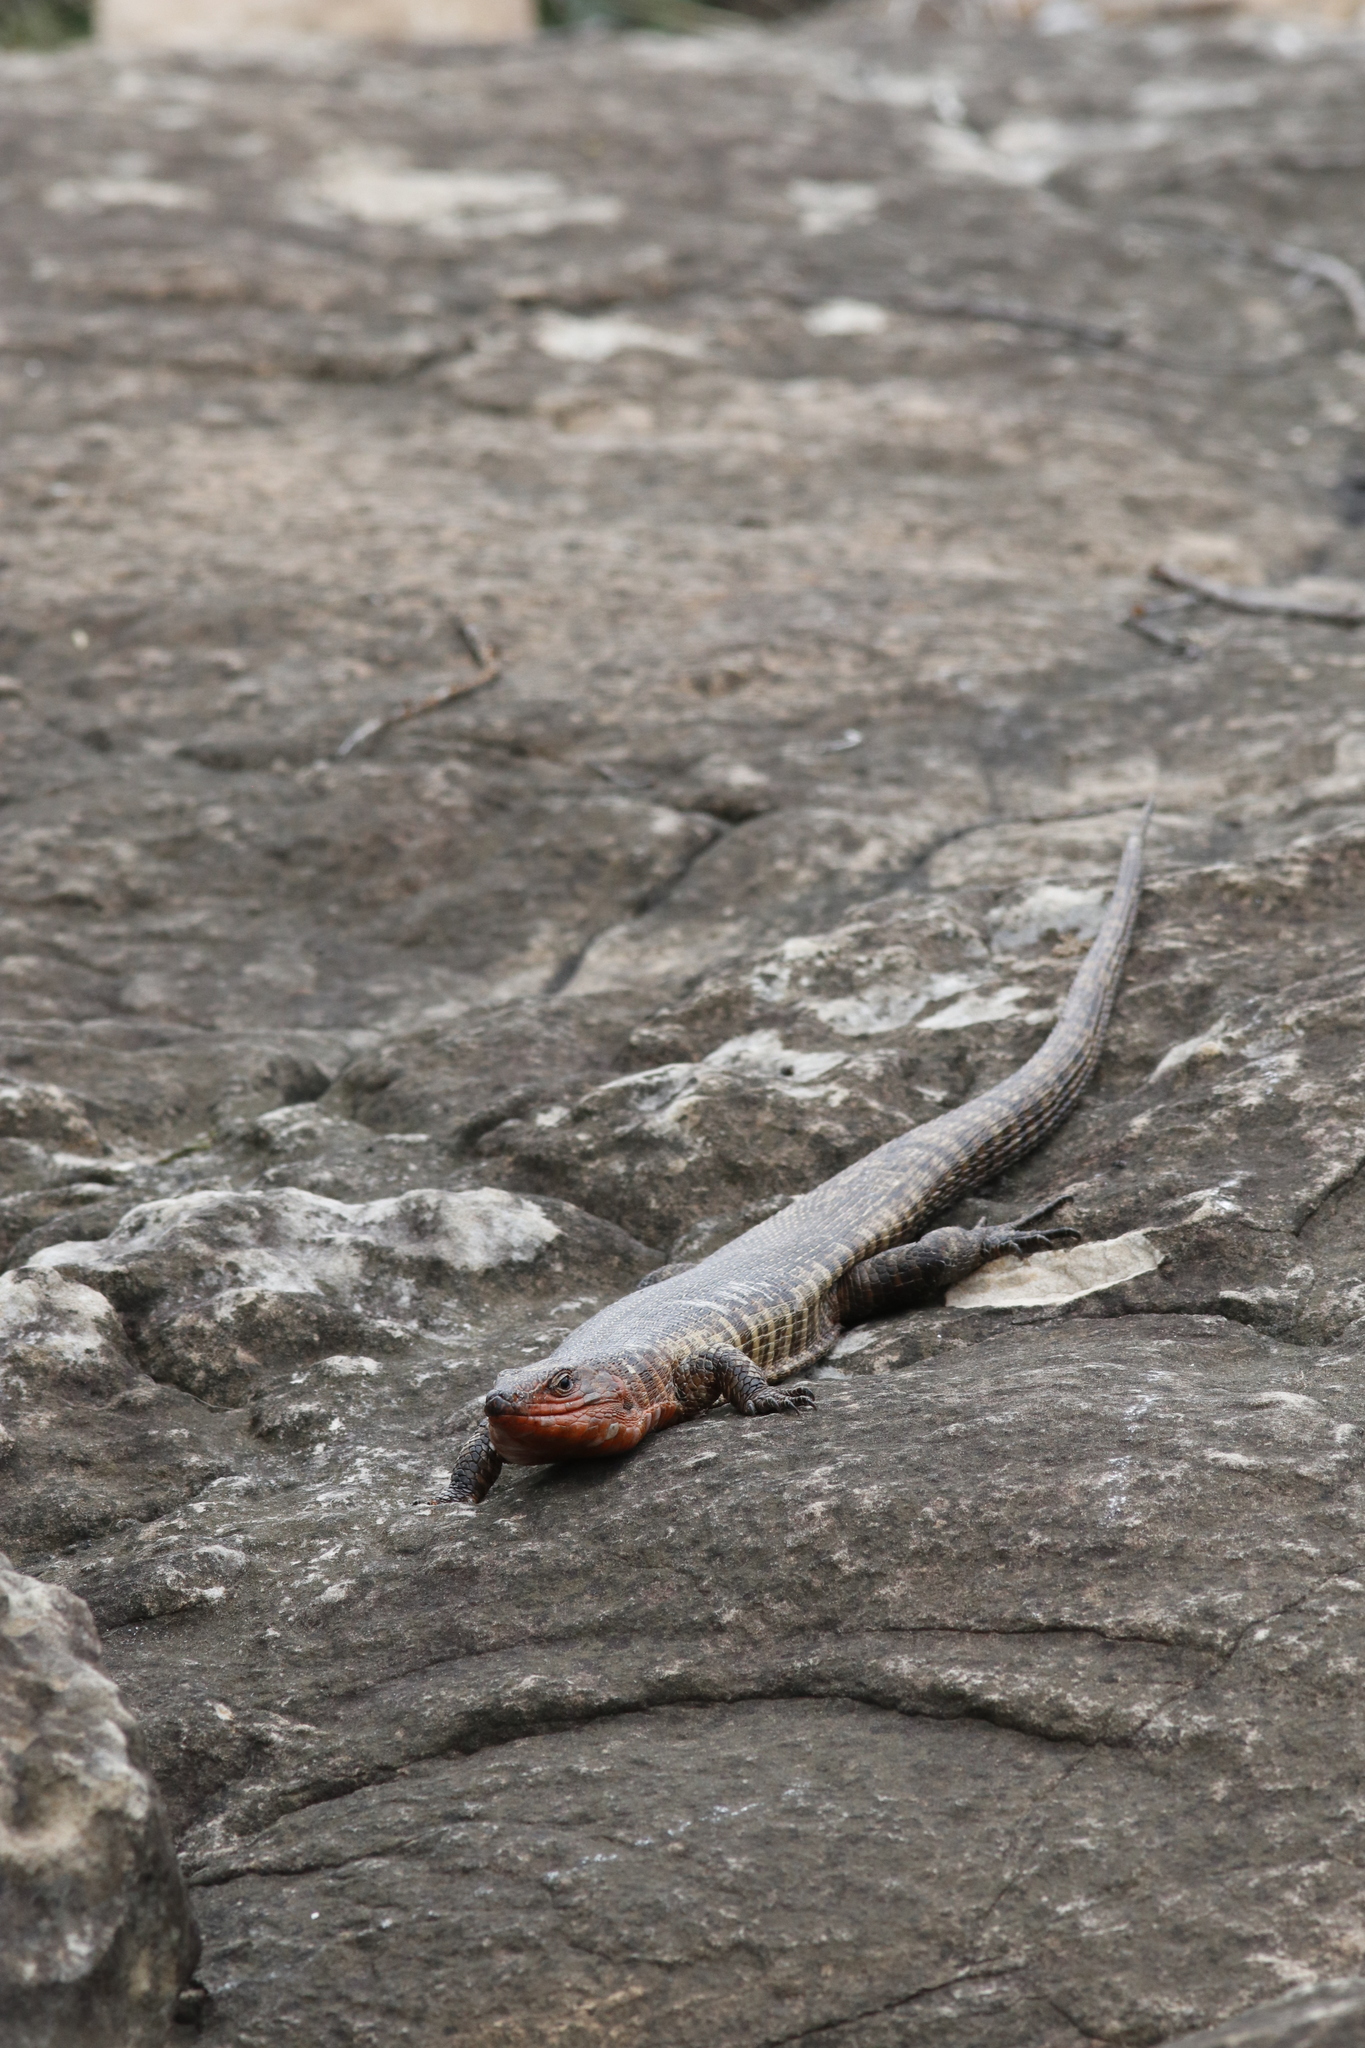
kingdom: Animalia
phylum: Chordata
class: Squamata
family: Gerrhosauridae
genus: Matobosaurus
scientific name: Matobosaurus validus
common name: Common giant plated lizard
